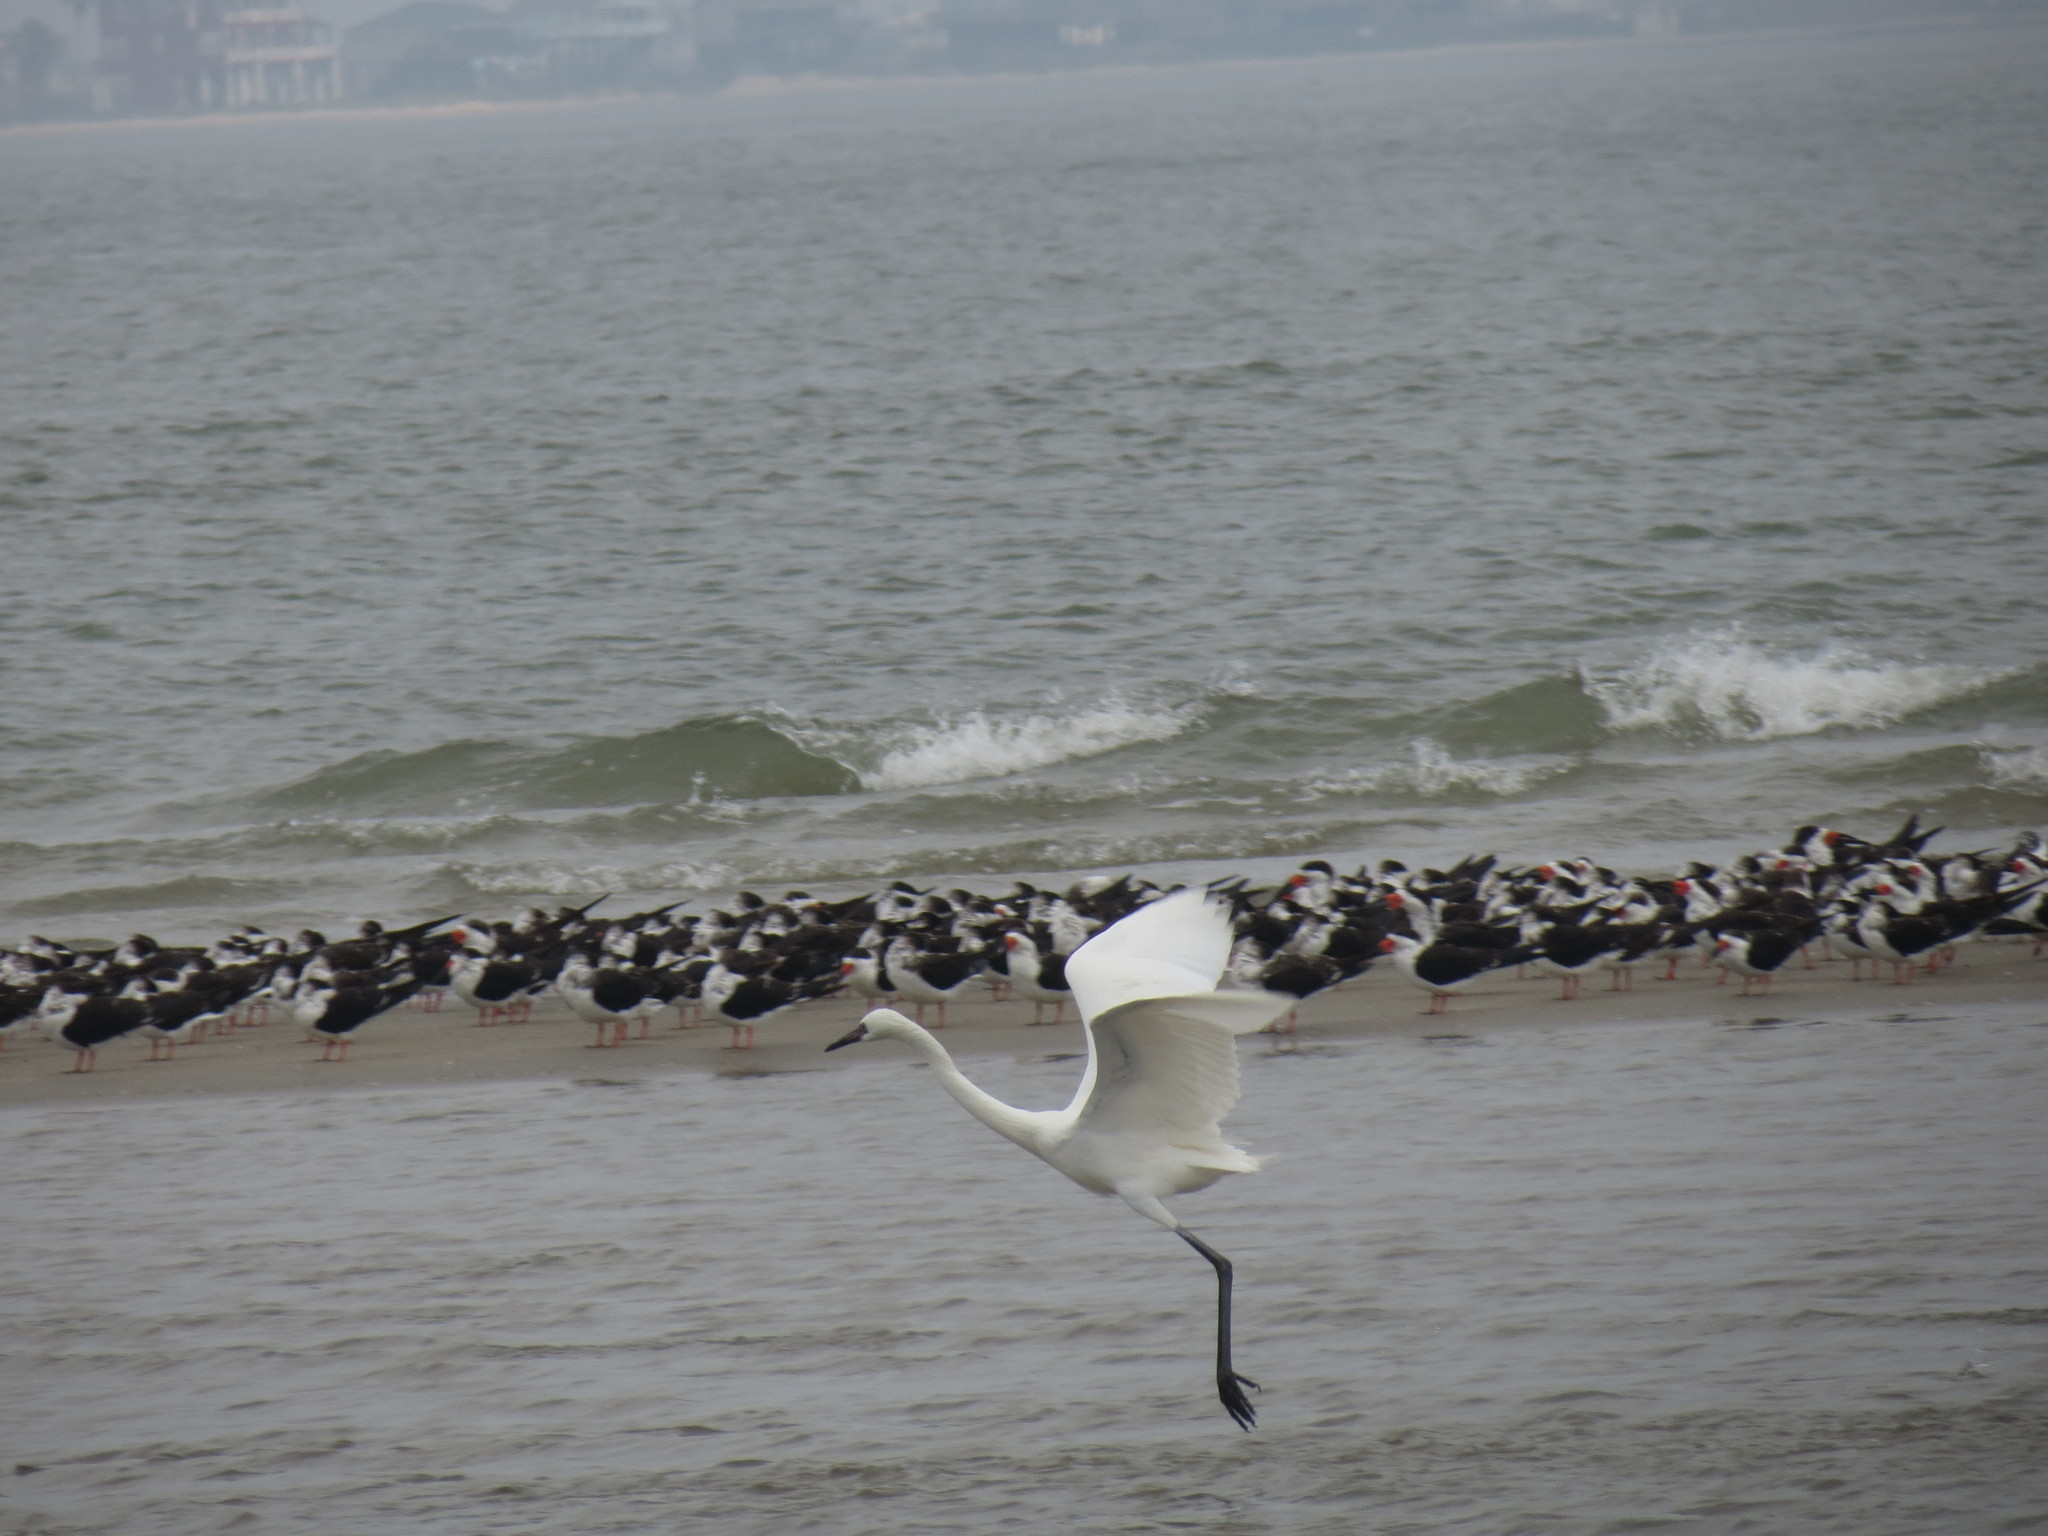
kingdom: Animalia
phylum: Chordata
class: Aves
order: Pelecaniformes
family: Ardeidae
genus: Egretta
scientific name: Egretta rufescens
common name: Reddish egret
